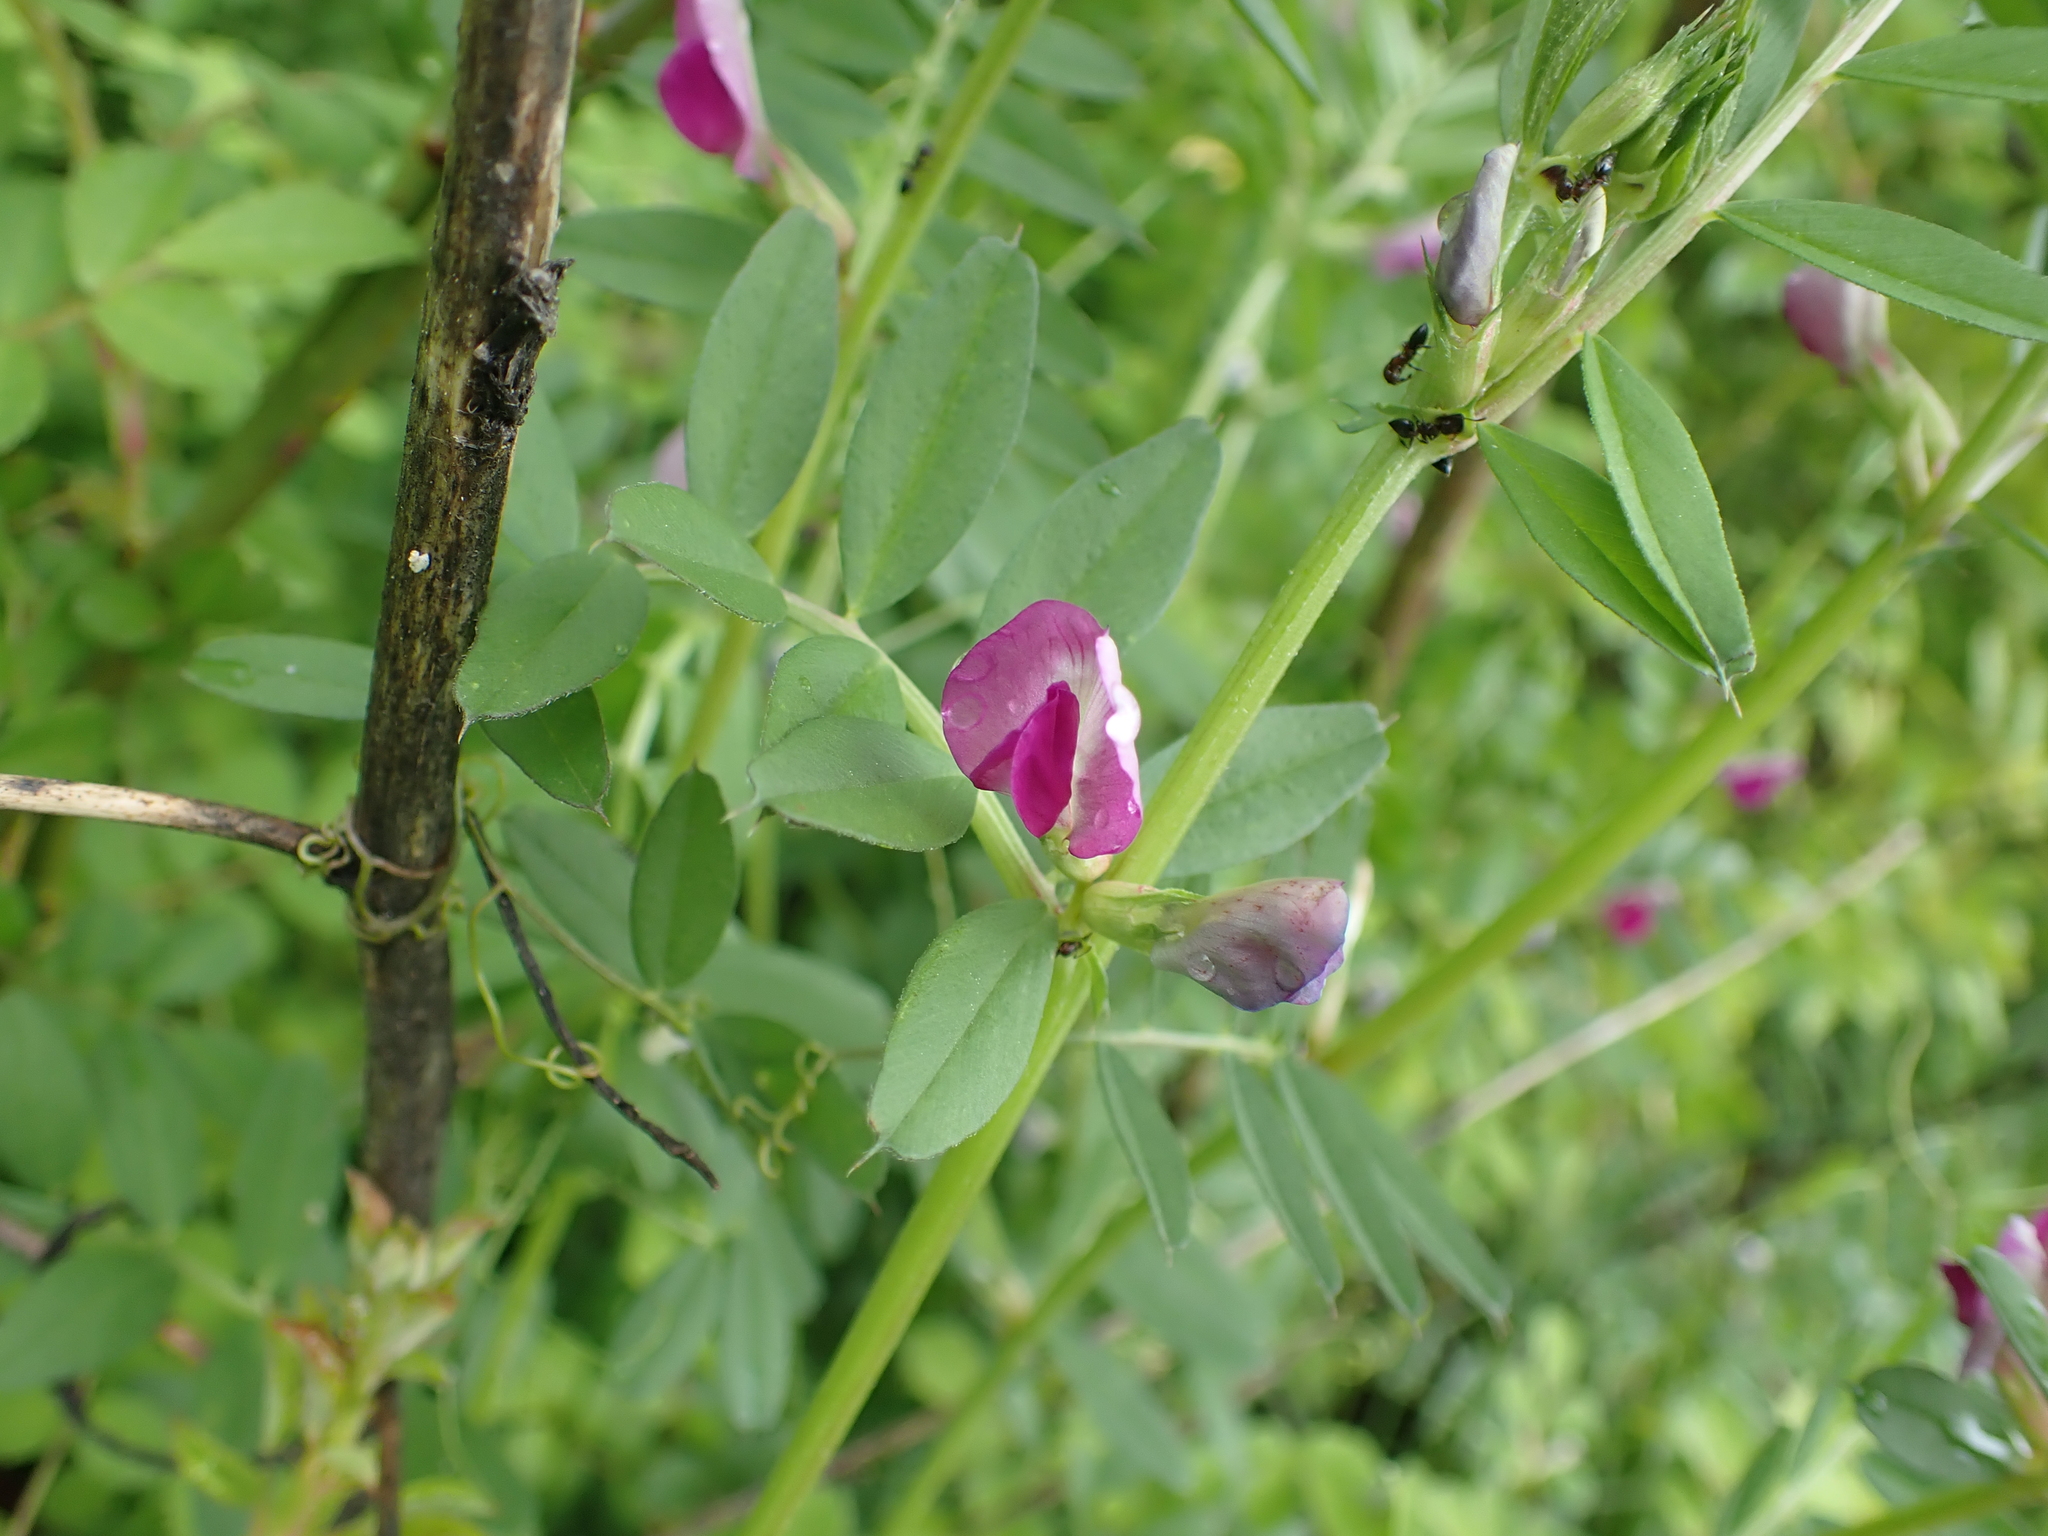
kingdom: Plantae
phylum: Tracheophyta
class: Magnoliopsida
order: Fabales
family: Fabaceae
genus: Vicia
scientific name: Vicia sativa
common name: Garden vetch
